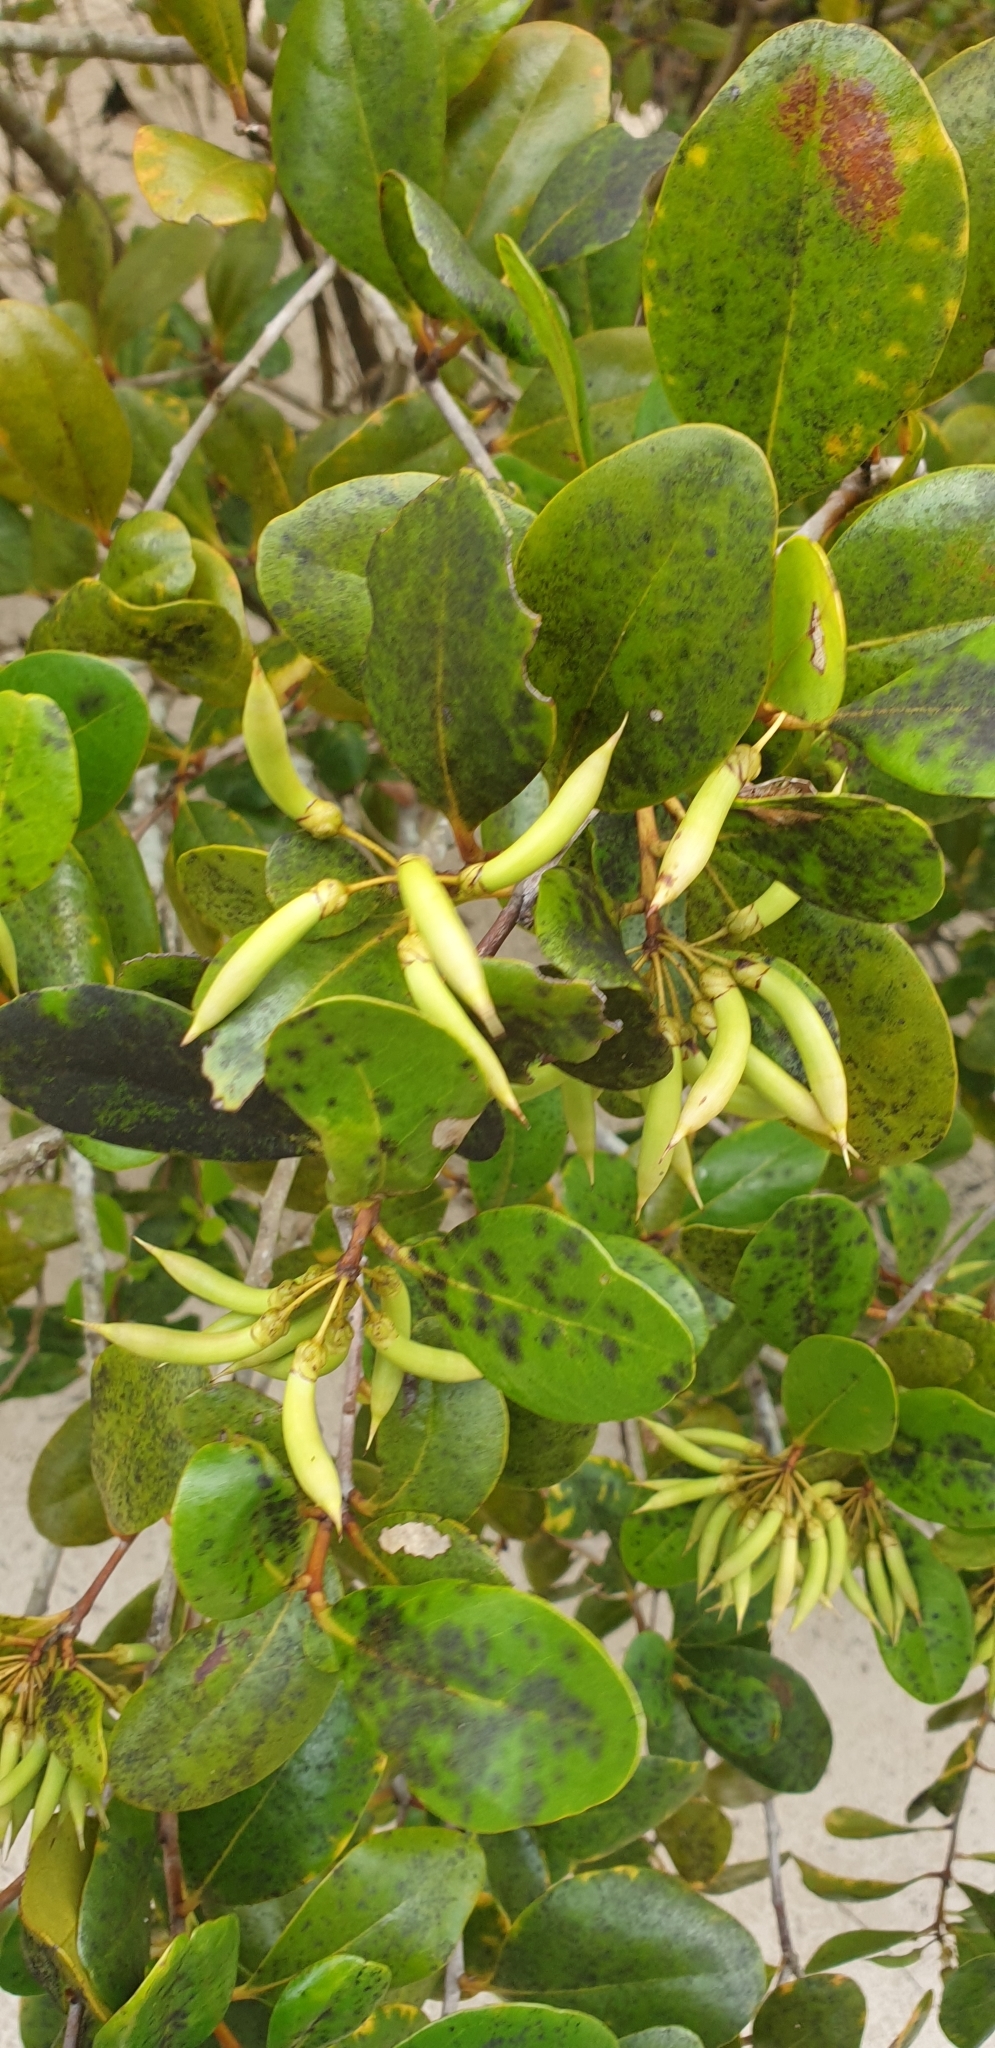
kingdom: Plantae
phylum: Tracheophyta
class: Magnoliopsida
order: Ericales
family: Primulaceae
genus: Aegiceras
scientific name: Aegiceras corniculatum
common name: River mangrove
